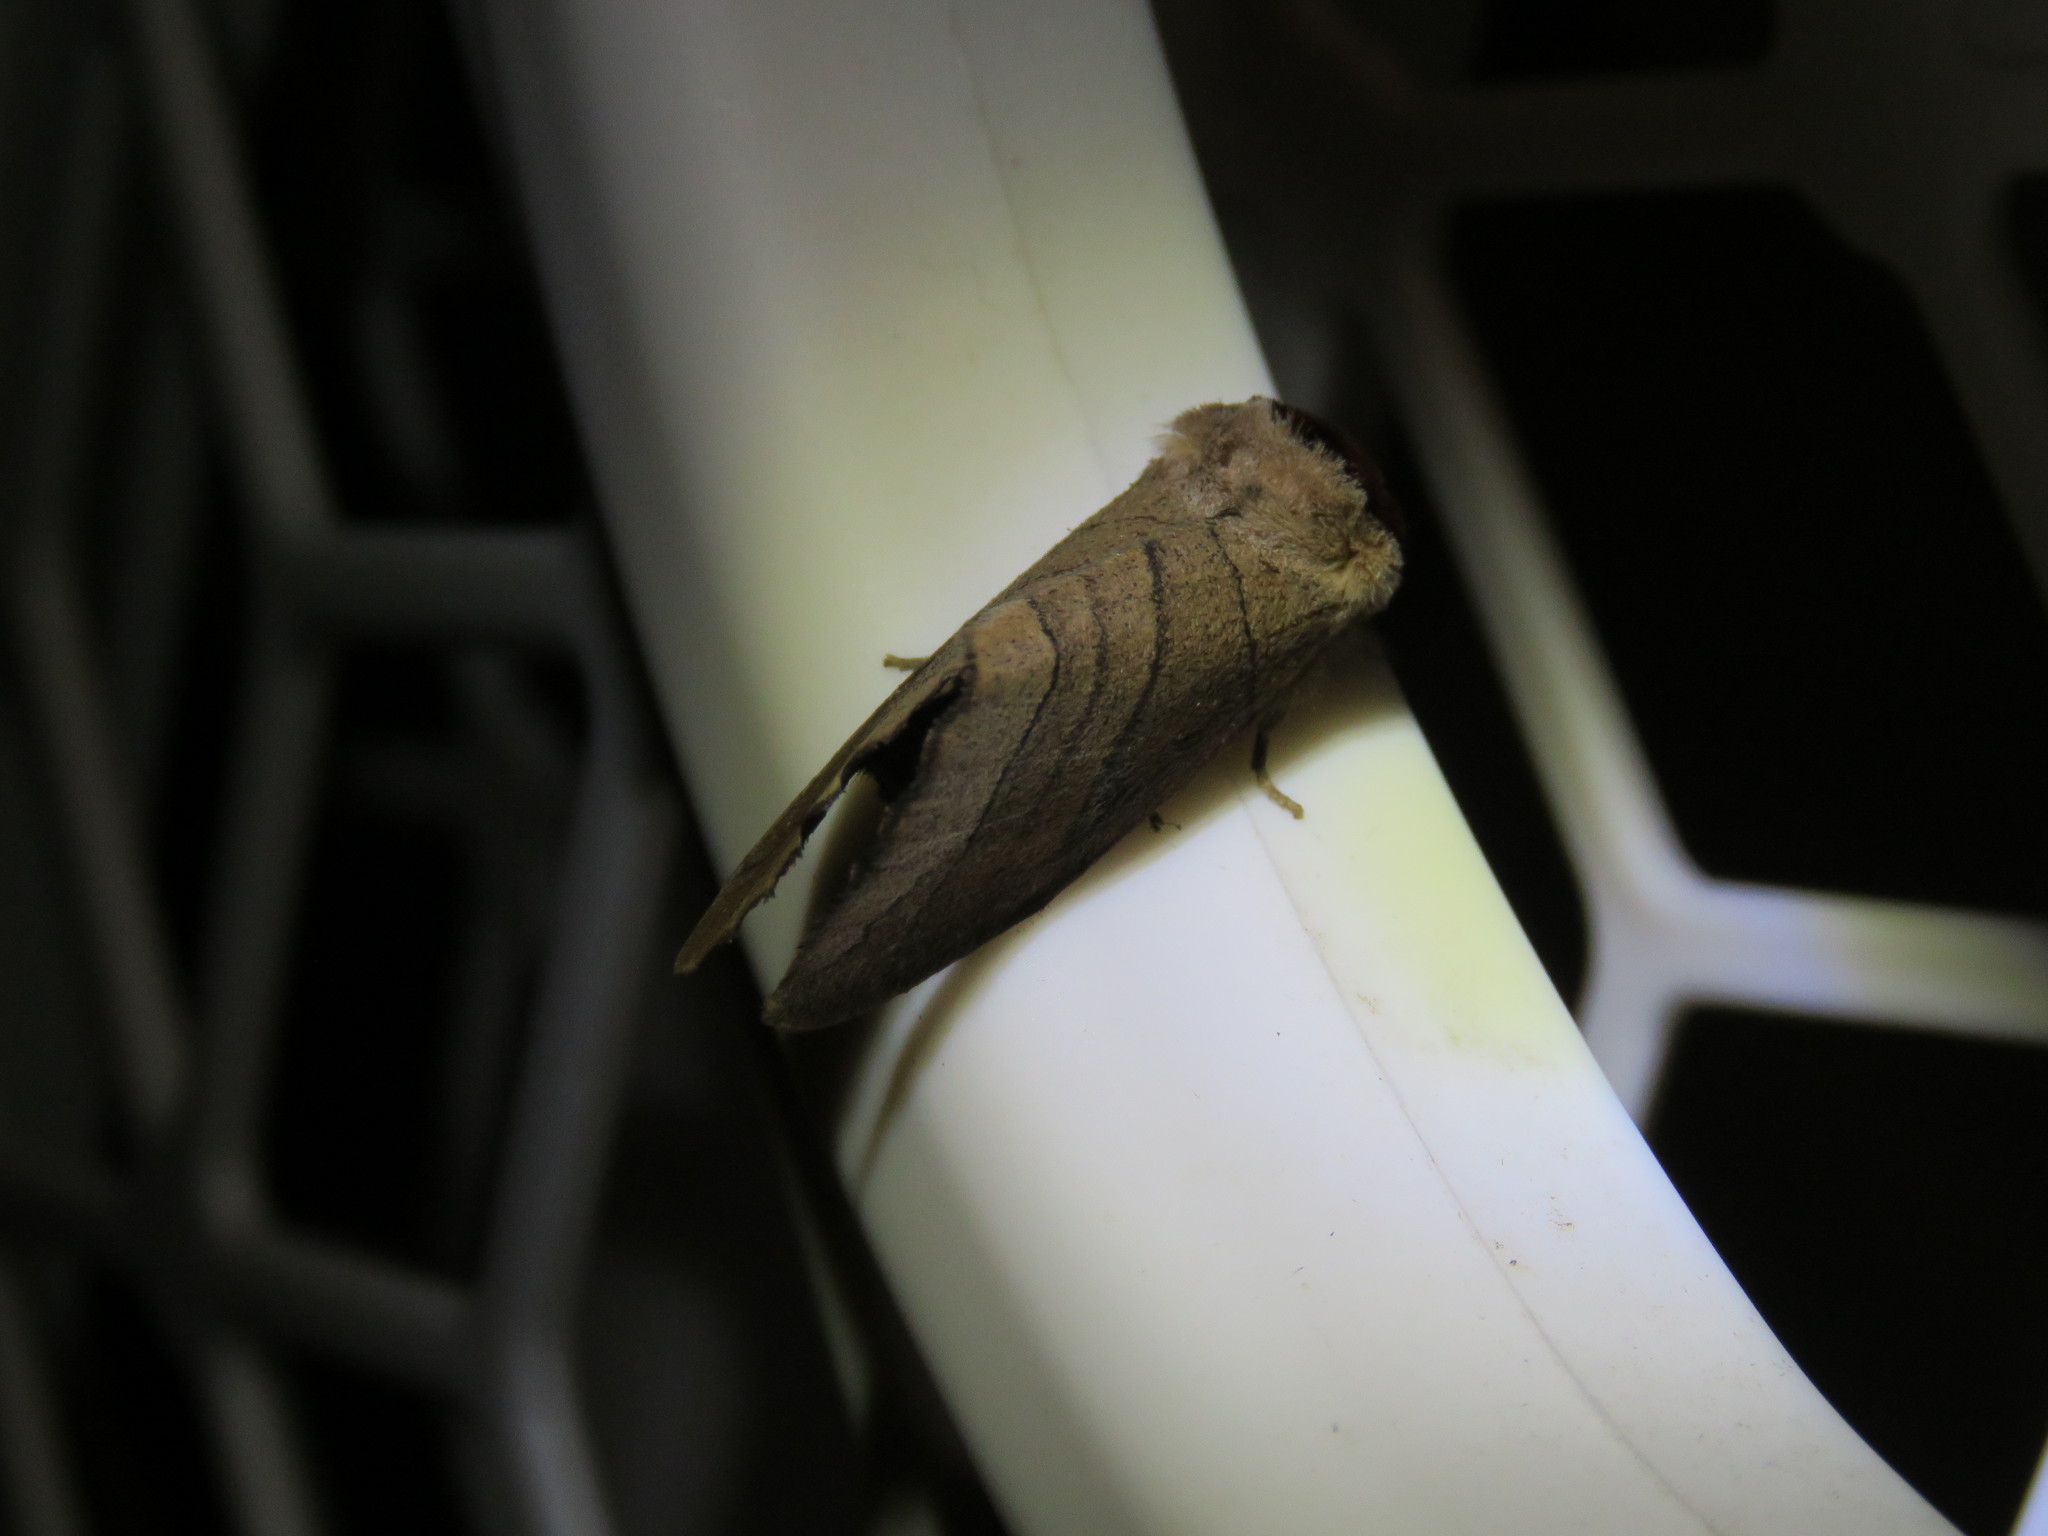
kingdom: Animalia
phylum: Arthropoda
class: Insecta
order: Lepidoptera
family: Notodontidae
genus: Datana
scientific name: Datana angusii
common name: Angus's datana
